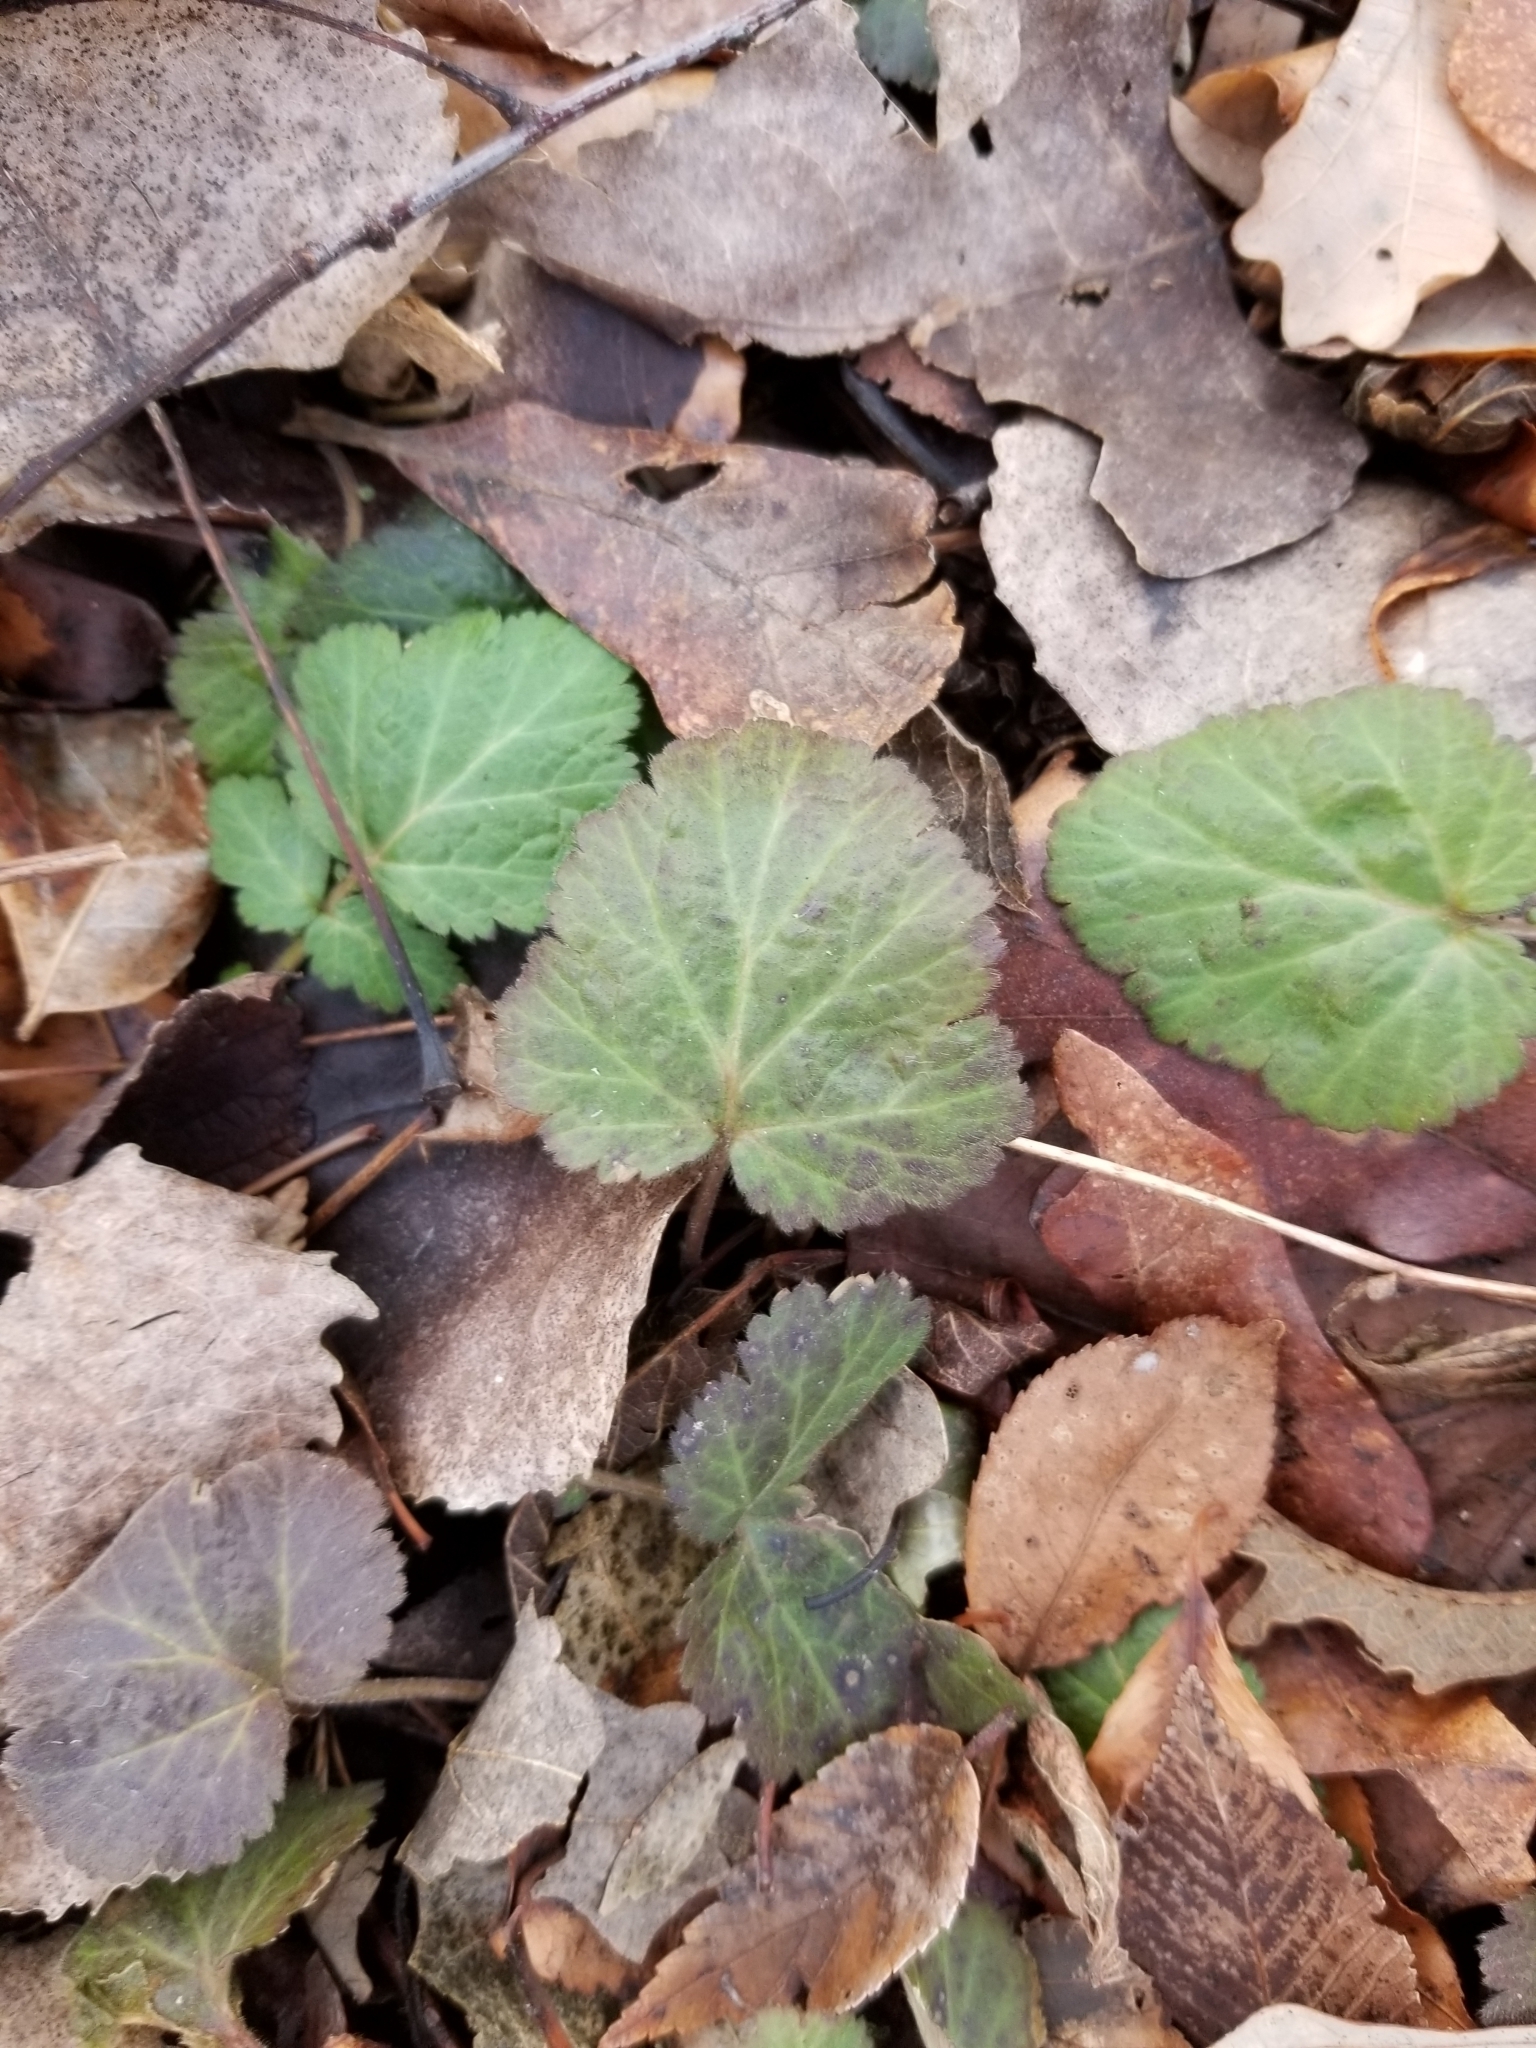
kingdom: Plantae
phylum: Tracheophyta
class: Magnoliopsida
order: Rosales
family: Rosaceae
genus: Geum
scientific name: Geum canadense
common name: White avens
